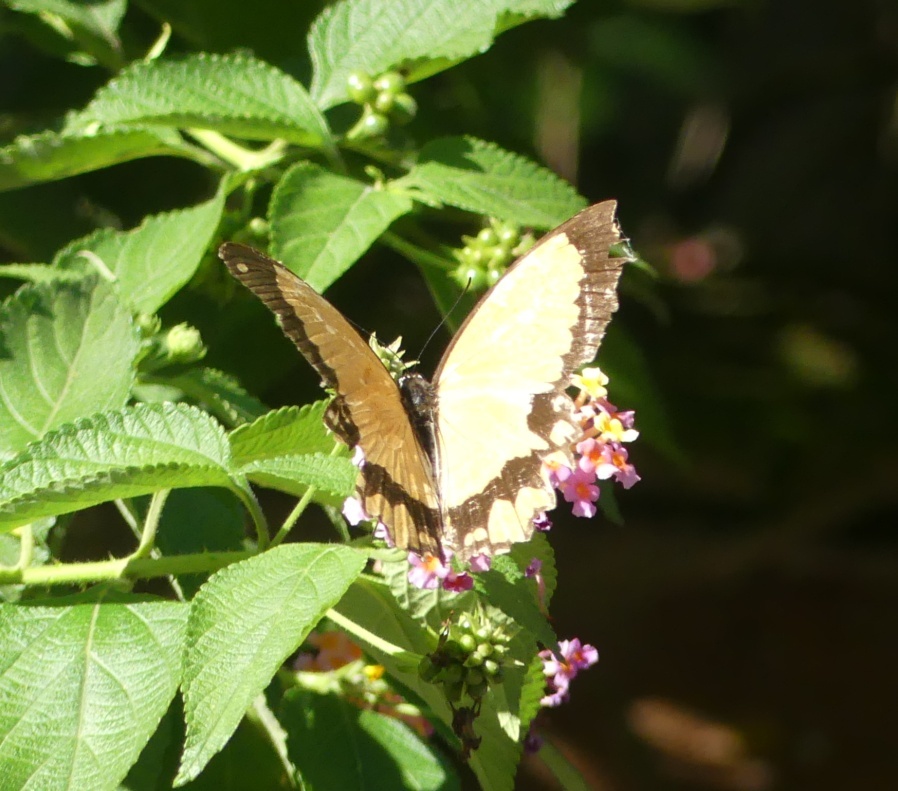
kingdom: Animalia
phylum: Arthropoda
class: Insecta
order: Lepidoptera
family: Papilionidae
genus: Papilio
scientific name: Papilio dardanus
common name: Flying handkerchief
